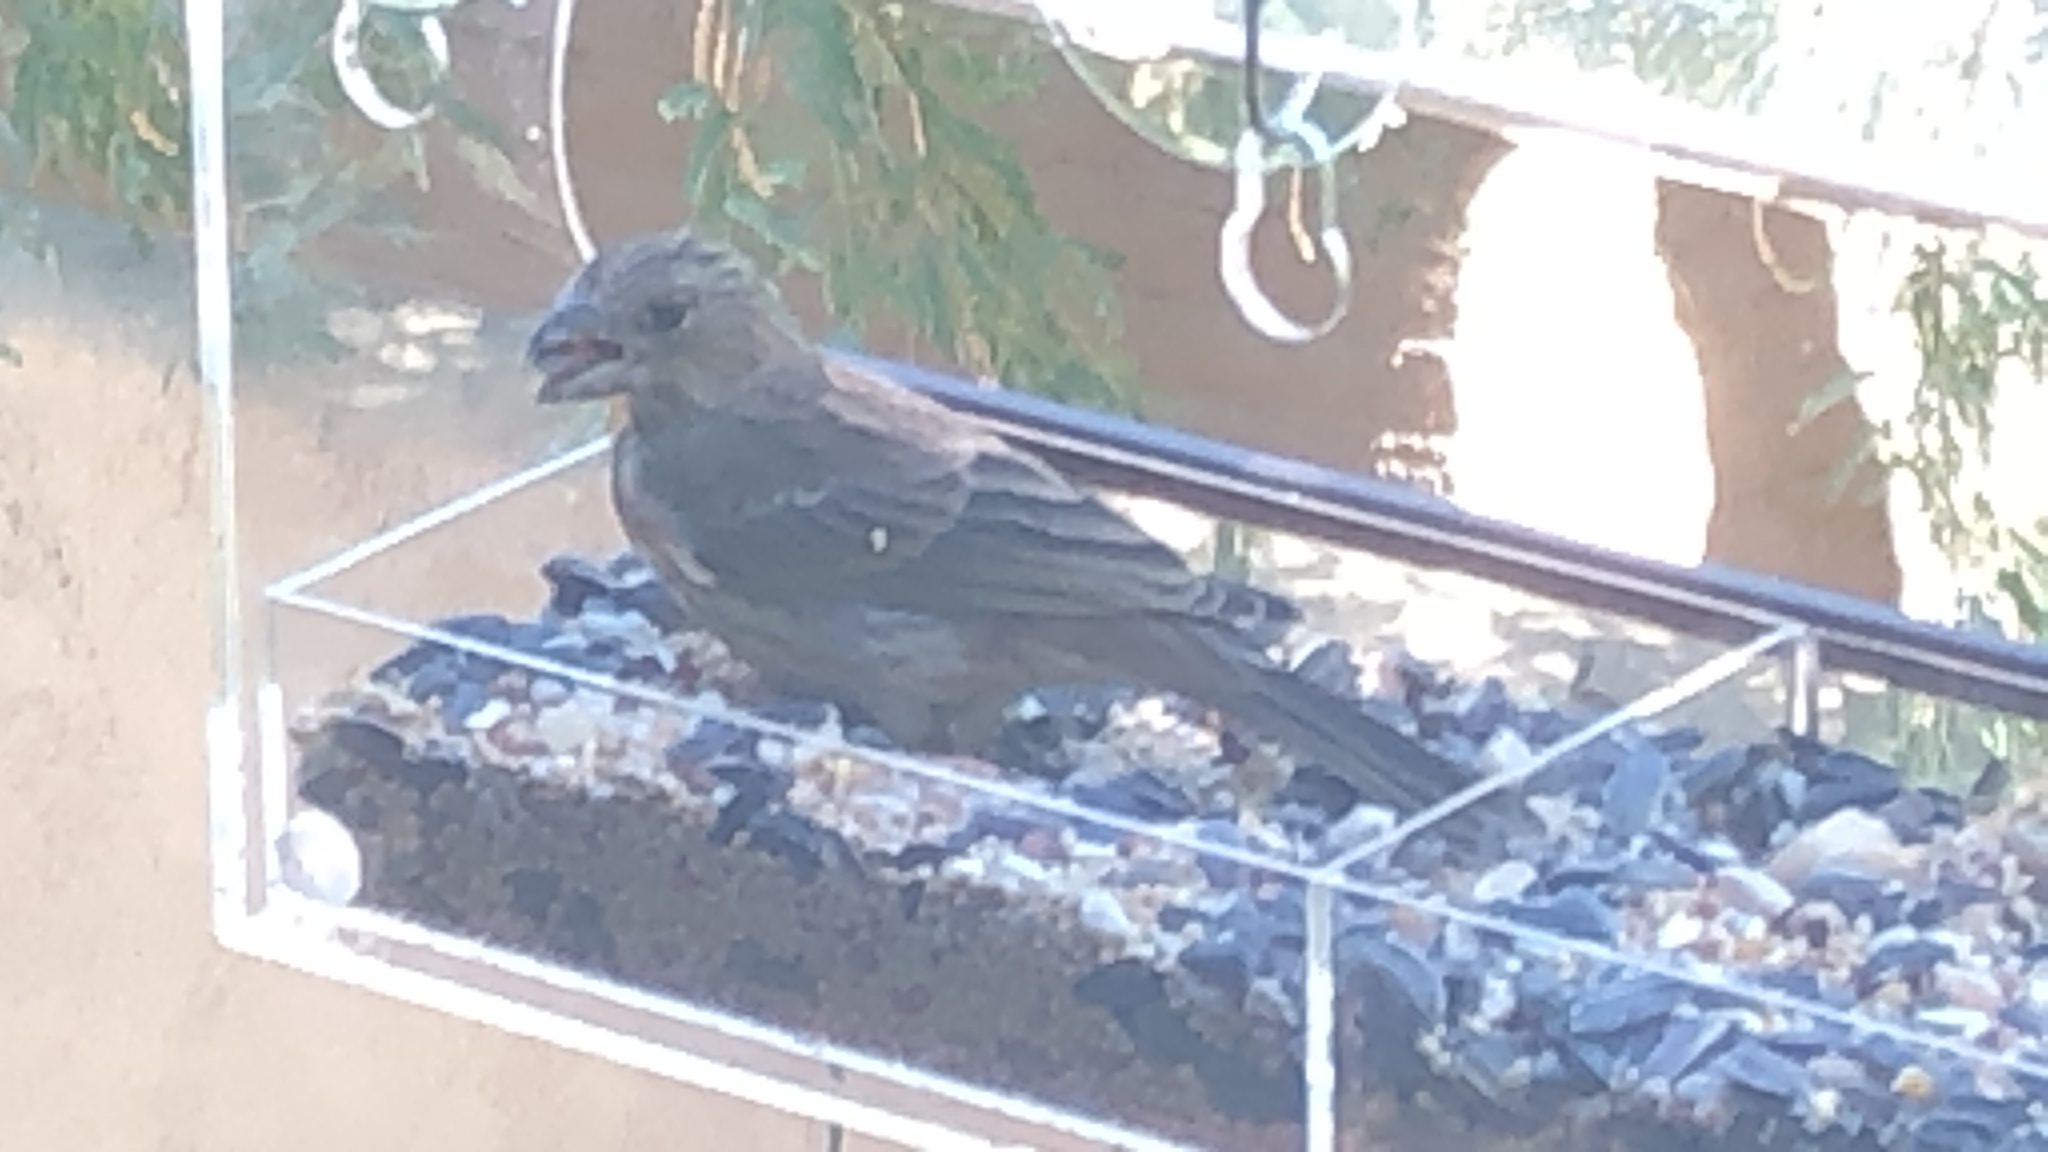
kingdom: Animalia
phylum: Chordata
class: Aves
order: Passeriformes
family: Fringillidae
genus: Haemorhous
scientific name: Haemorhous mexicanus
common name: House finch
